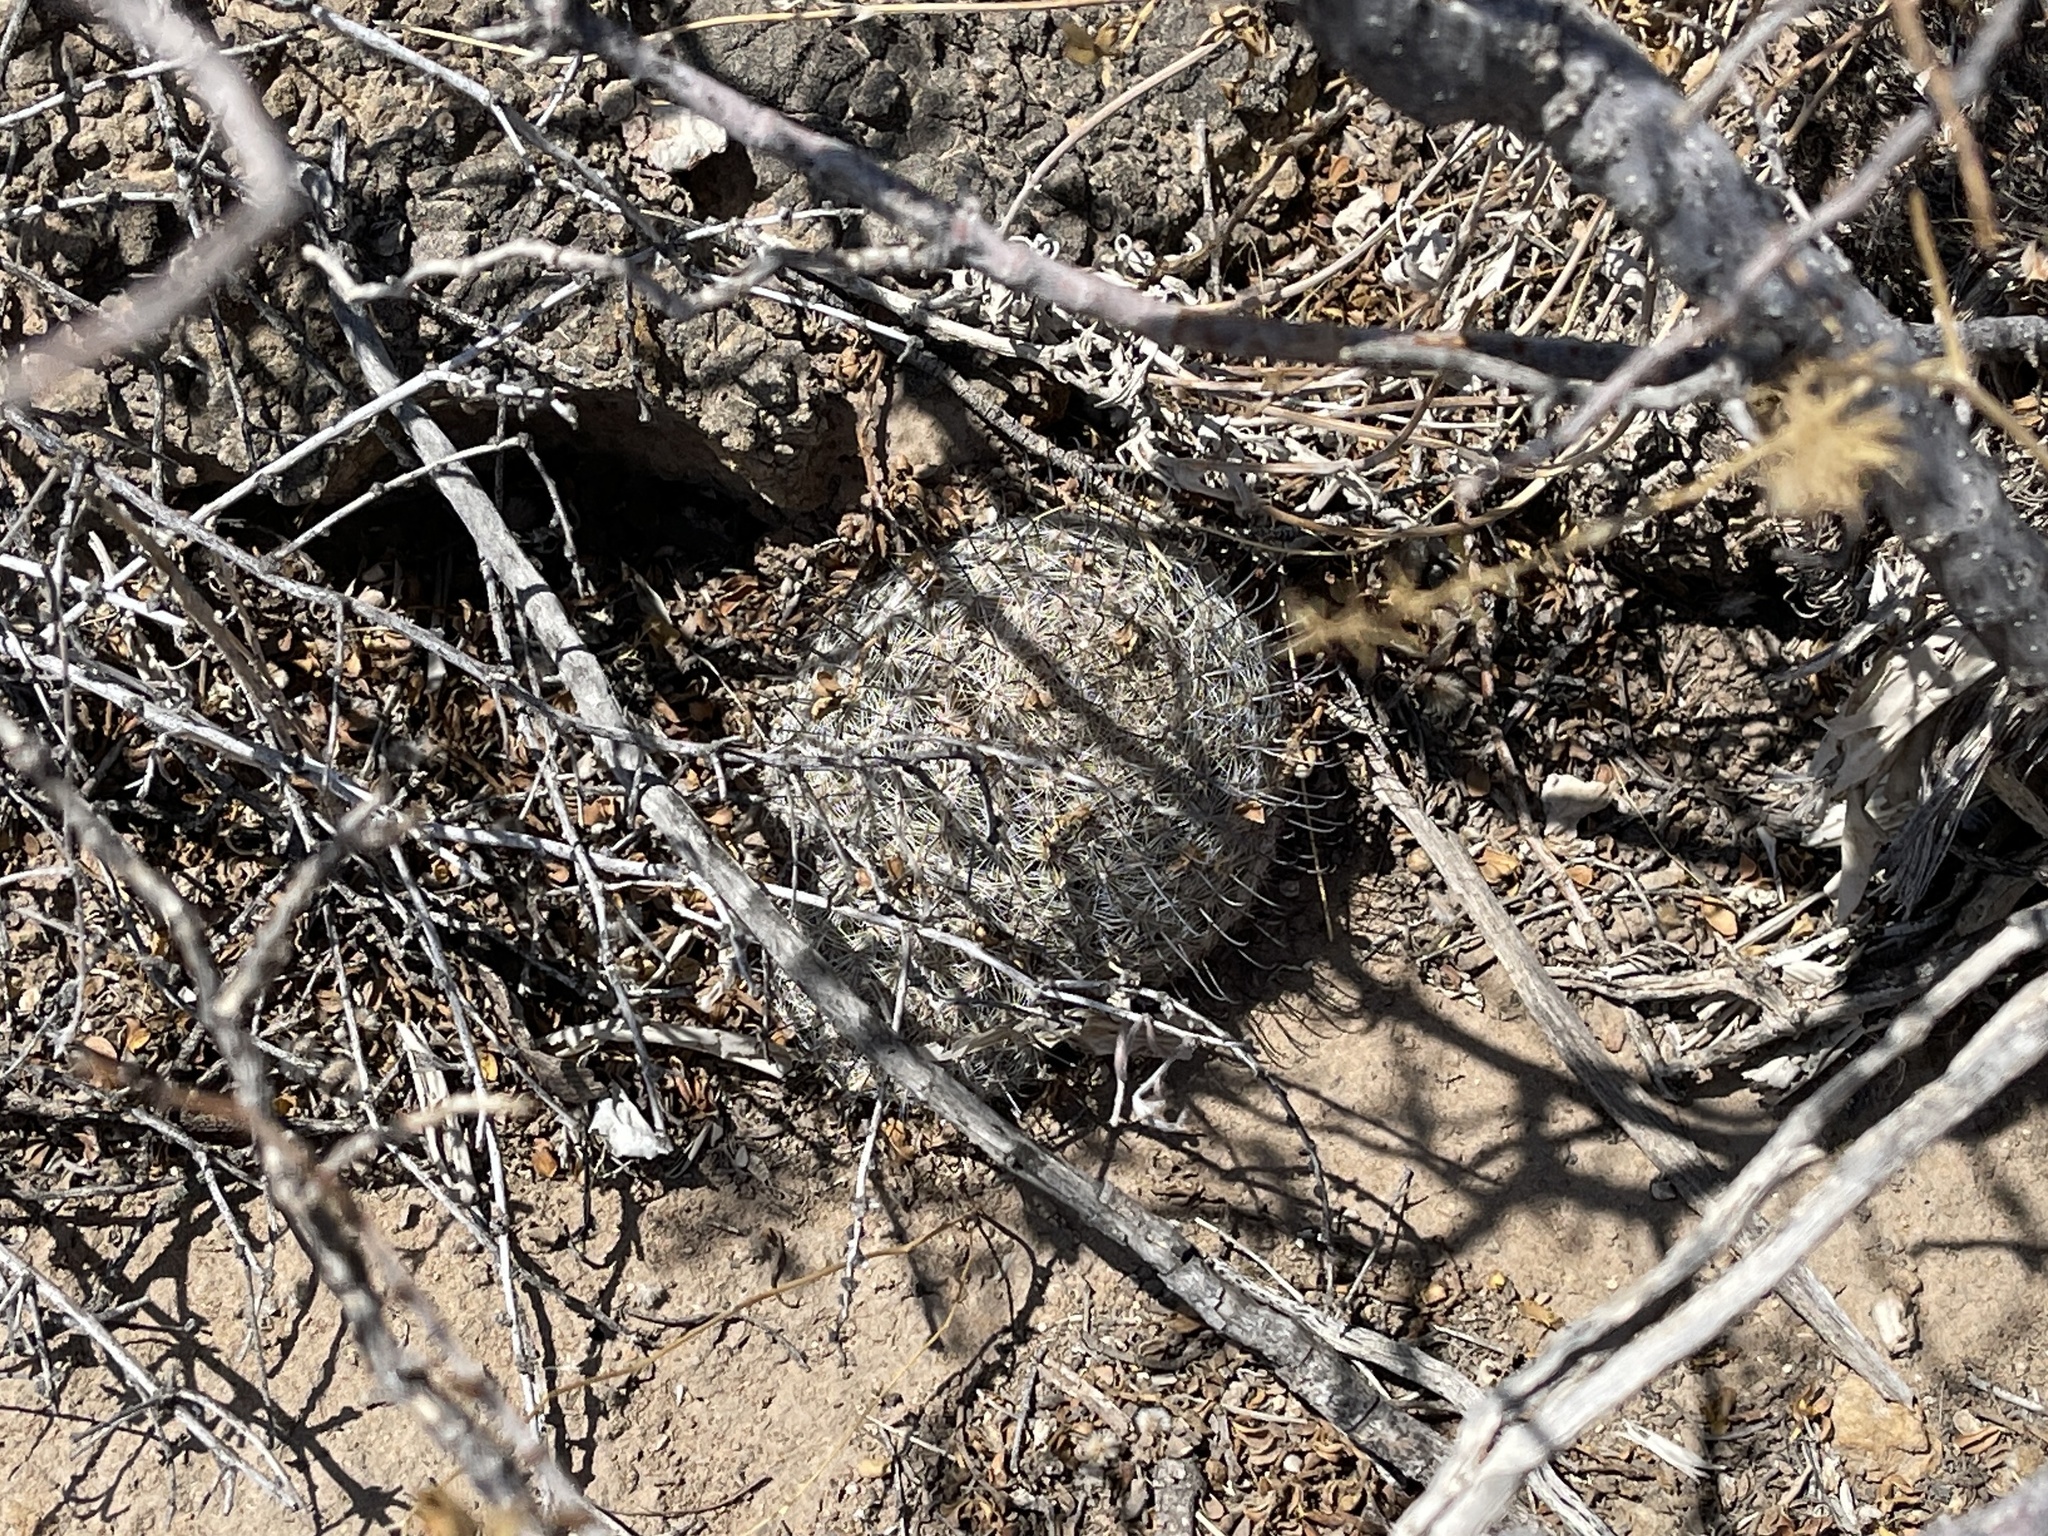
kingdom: Plantae
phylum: Tracheophyta
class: Magnoliopsida
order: Caryophyllales
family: Cactaceae
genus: Cochemiea
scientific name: Cochemiea grahamii
